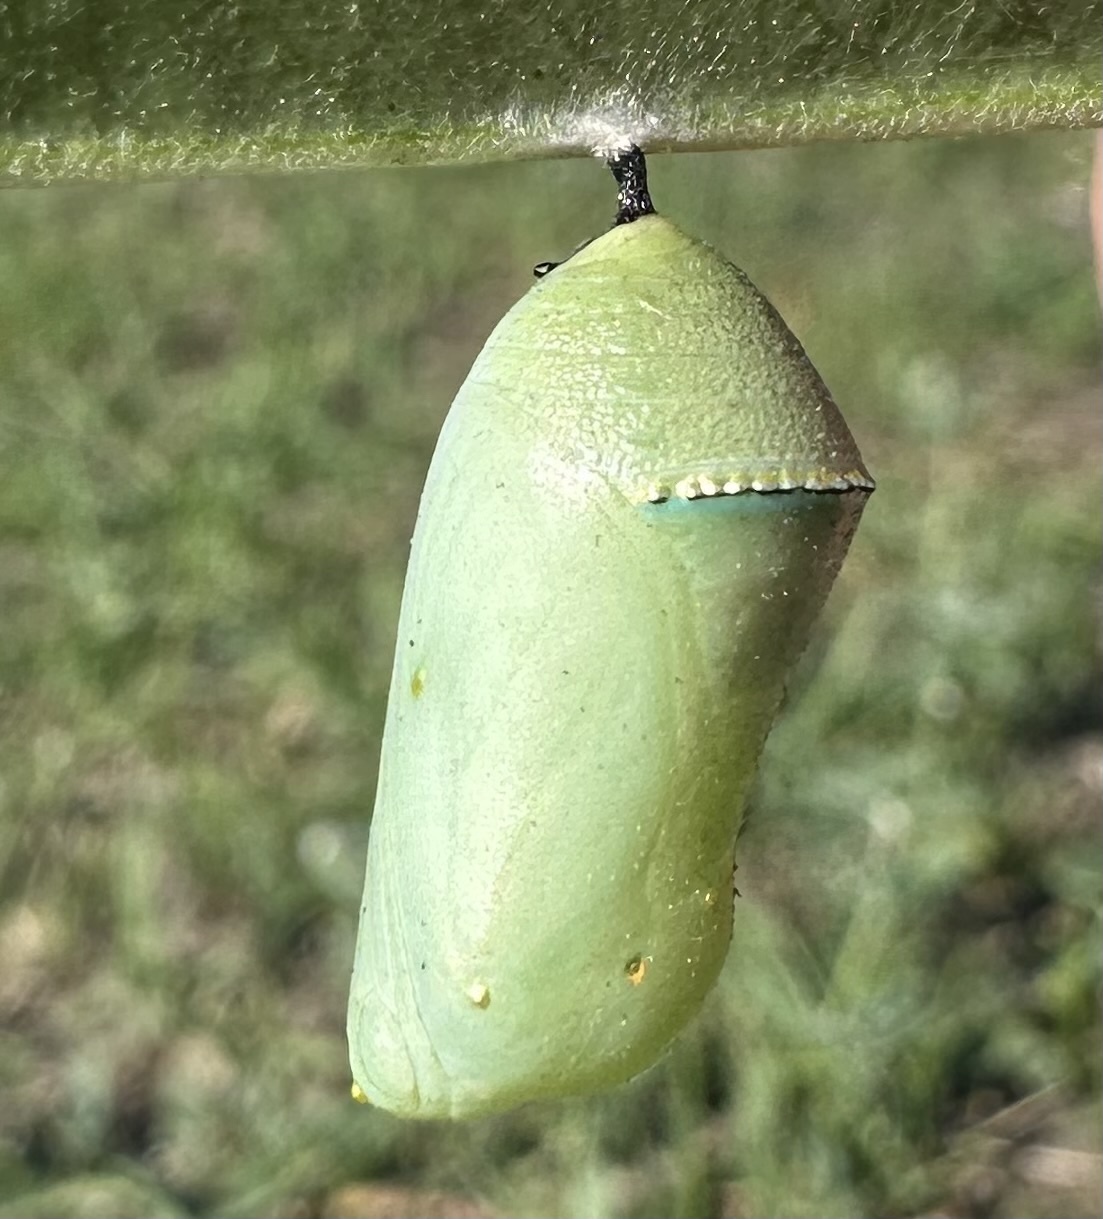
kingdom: Animalia
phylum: Arthropoda
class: Insecta
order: Lepidoptera
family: Nymphalidae
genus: Danaus
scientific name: Danaus chrysippus
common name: Plain tiger
